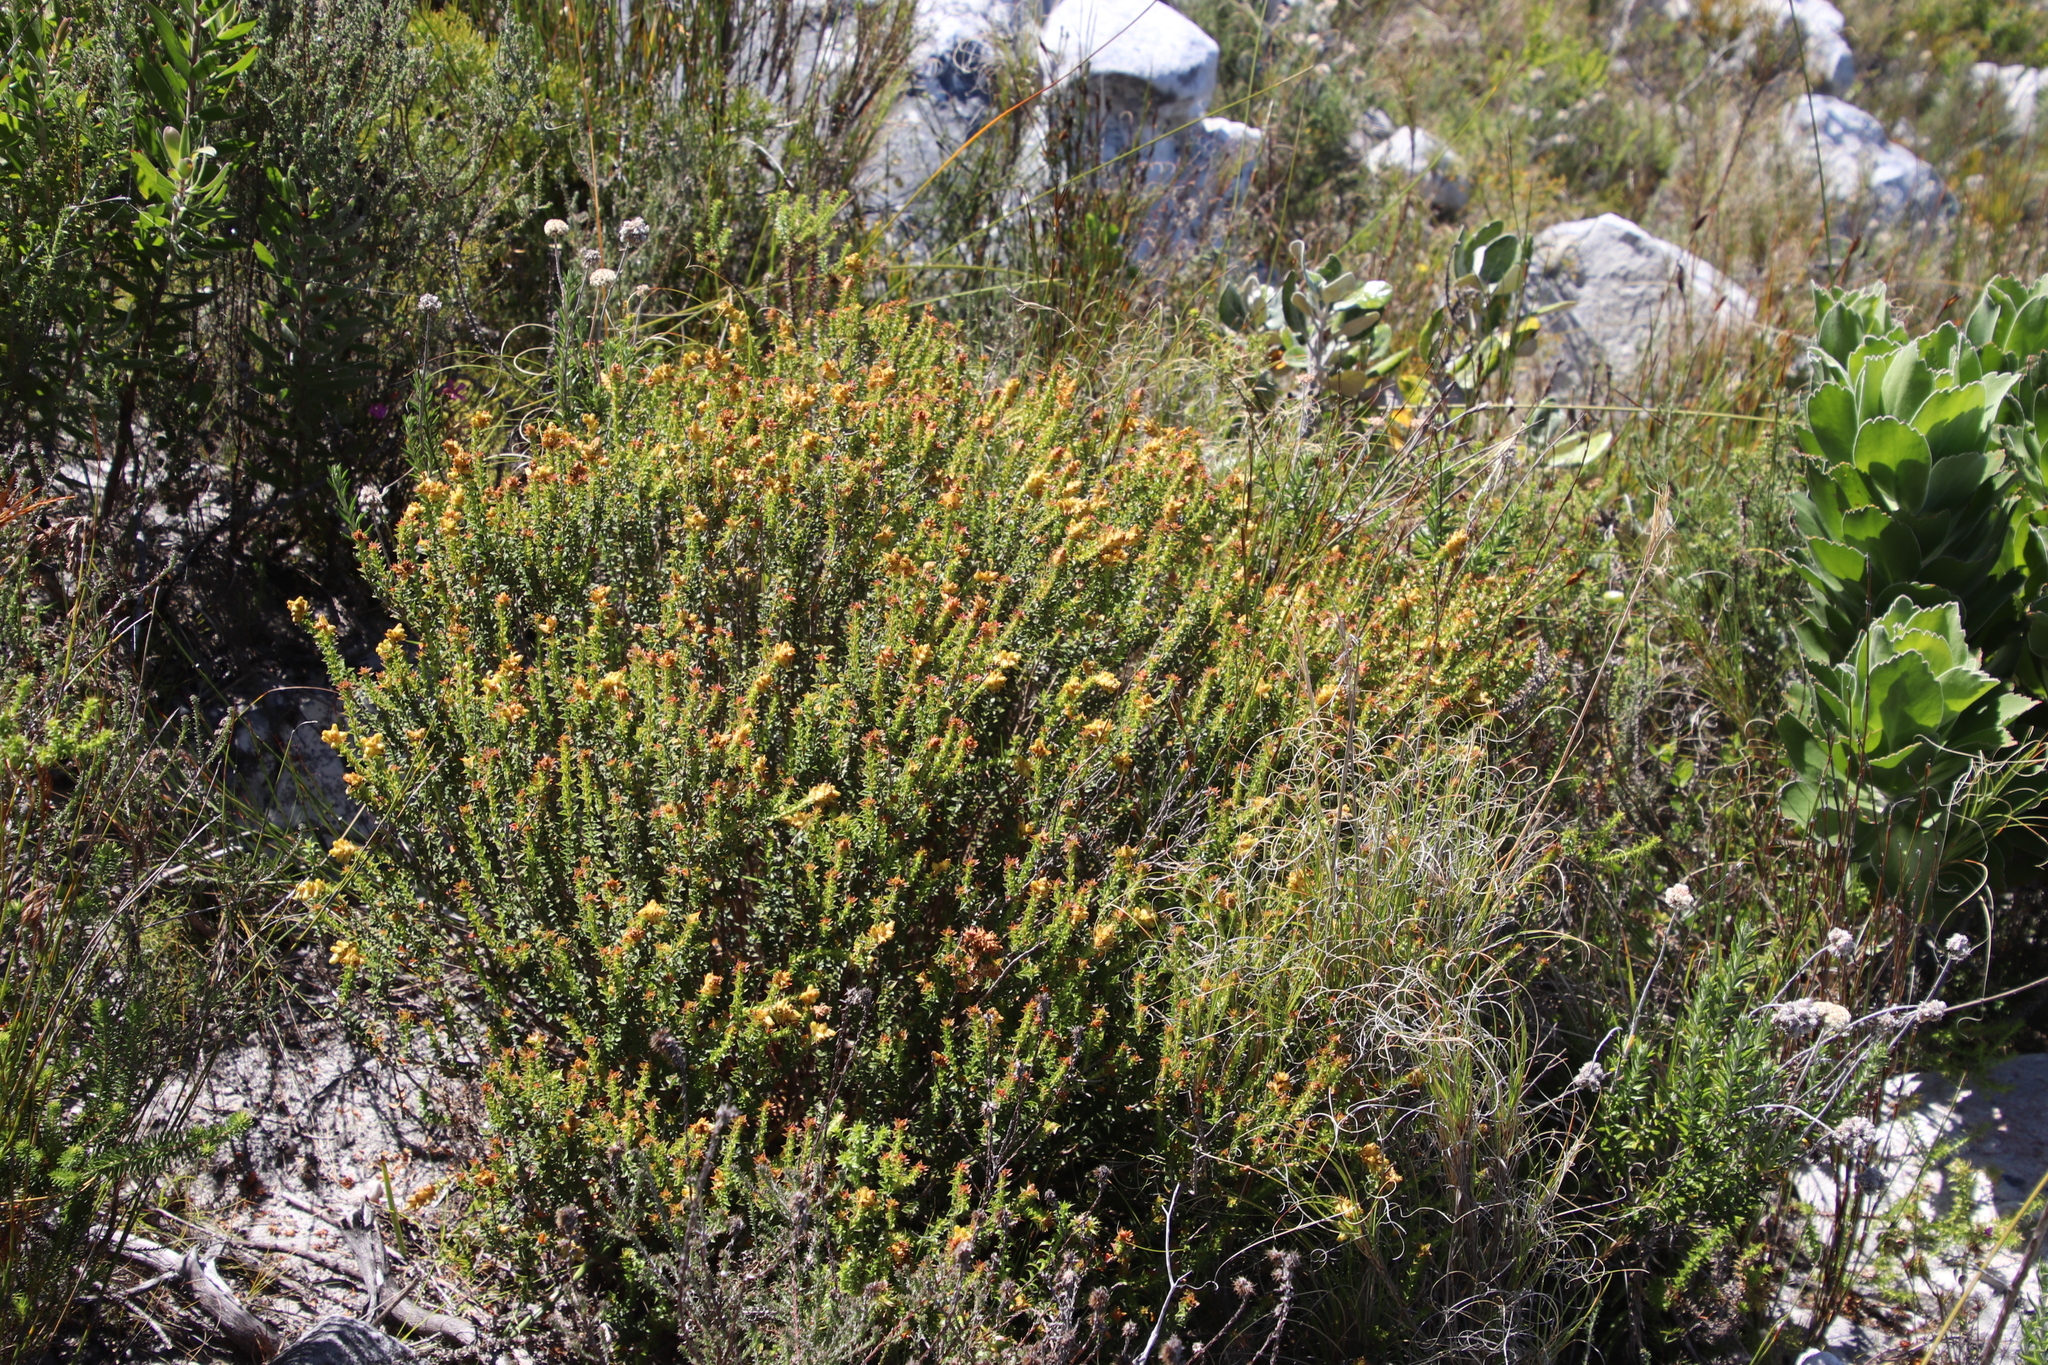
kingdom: Plantae
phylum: Tracheophyta
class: Magnoliopsida
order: Myrtales
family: Penaeaceae
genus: Penaea
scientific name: Penaea mucronata
